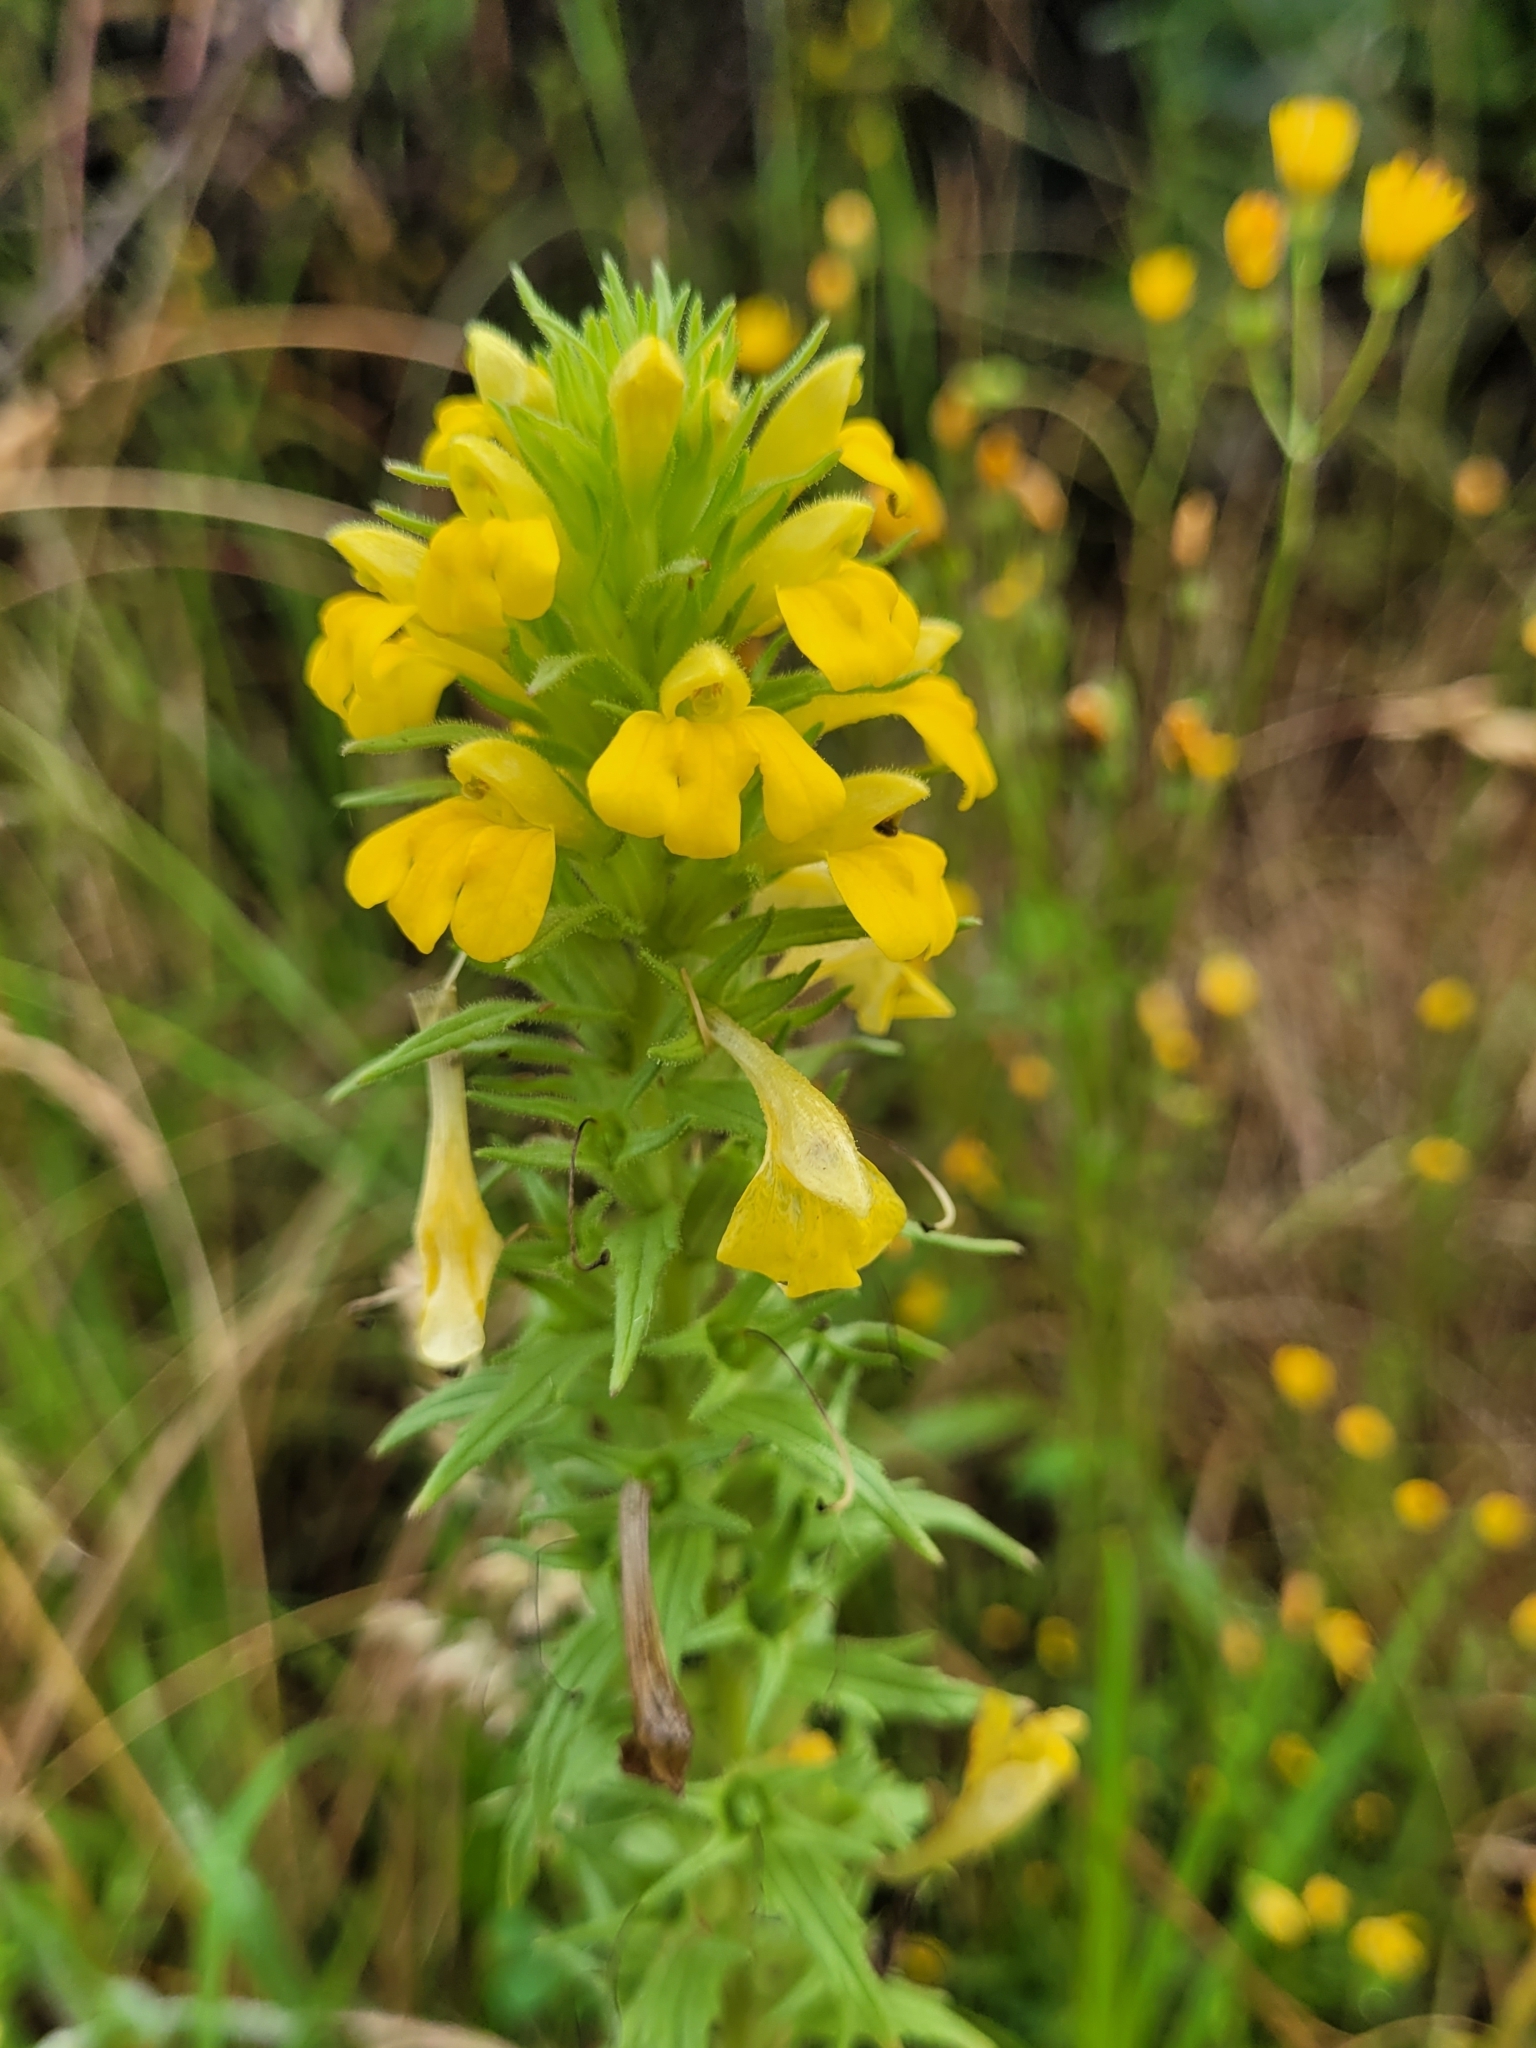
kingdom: Plantae
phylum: Tracheophyta
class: Magnoliopsida
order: Lamiales
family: Orobanchaceae
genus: Bellardia
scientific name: Bellardia viscosa
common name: Sticky parentucellia
